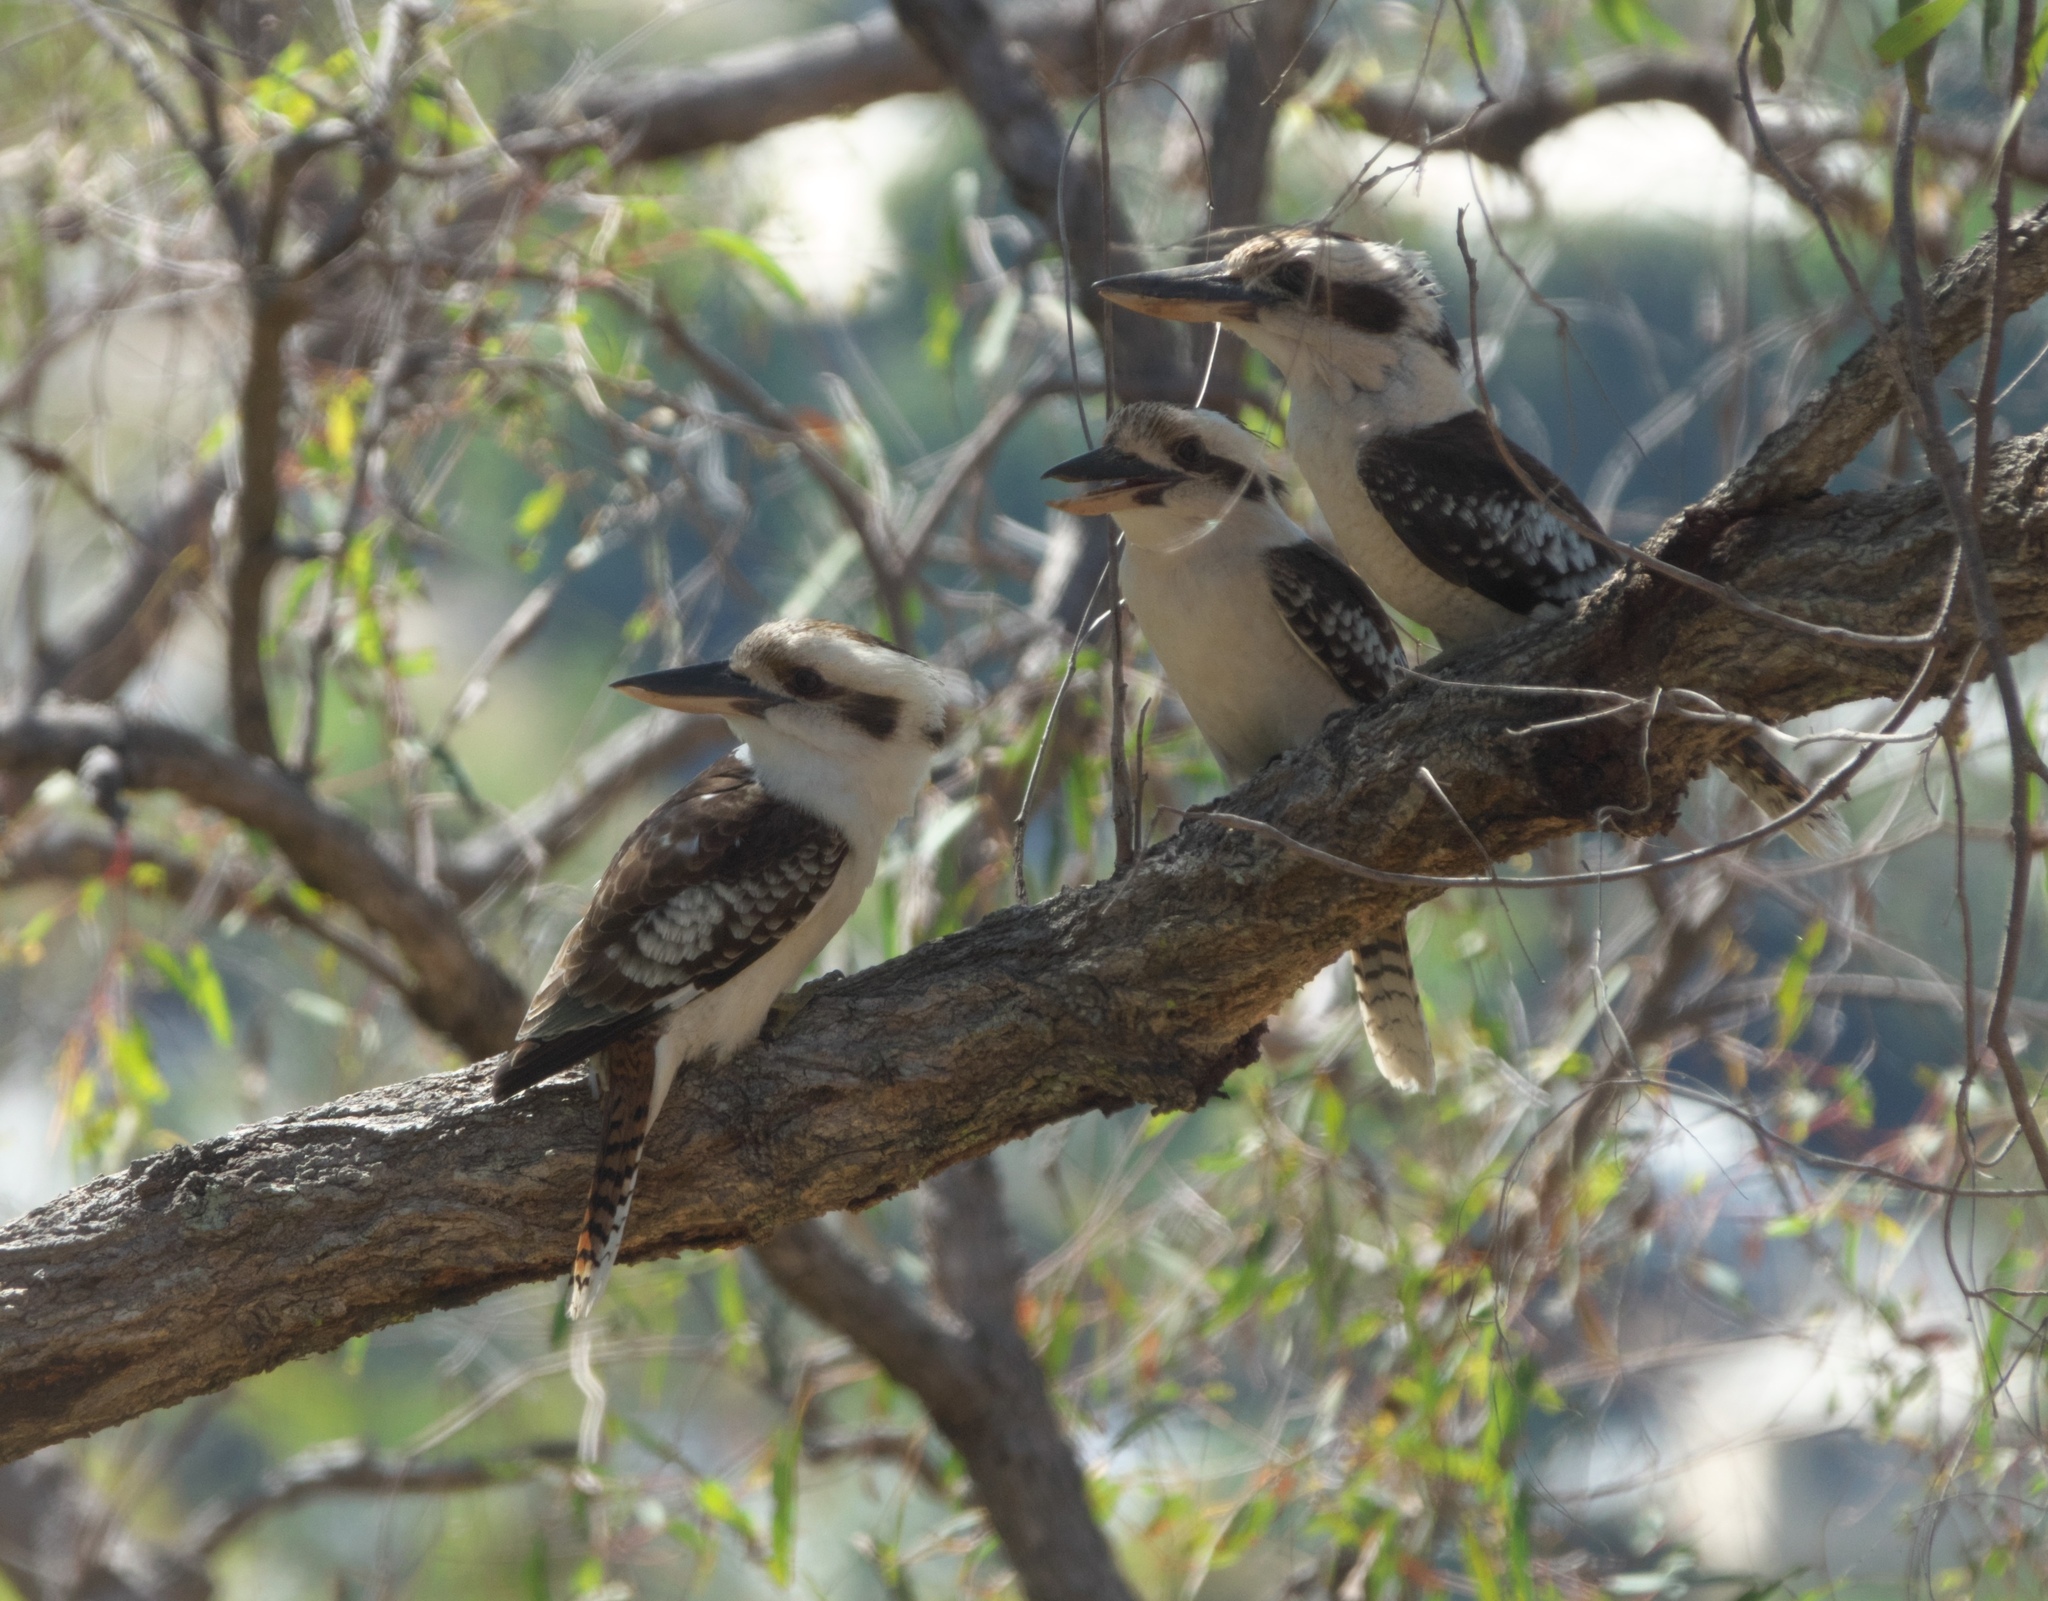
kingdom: Animalia
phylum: Chordata
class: Aves
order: Coraciiformes
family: Alcedinidae
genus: Dacelo
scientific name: Dacelo novaeguineae
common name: Laughing kookaburra
